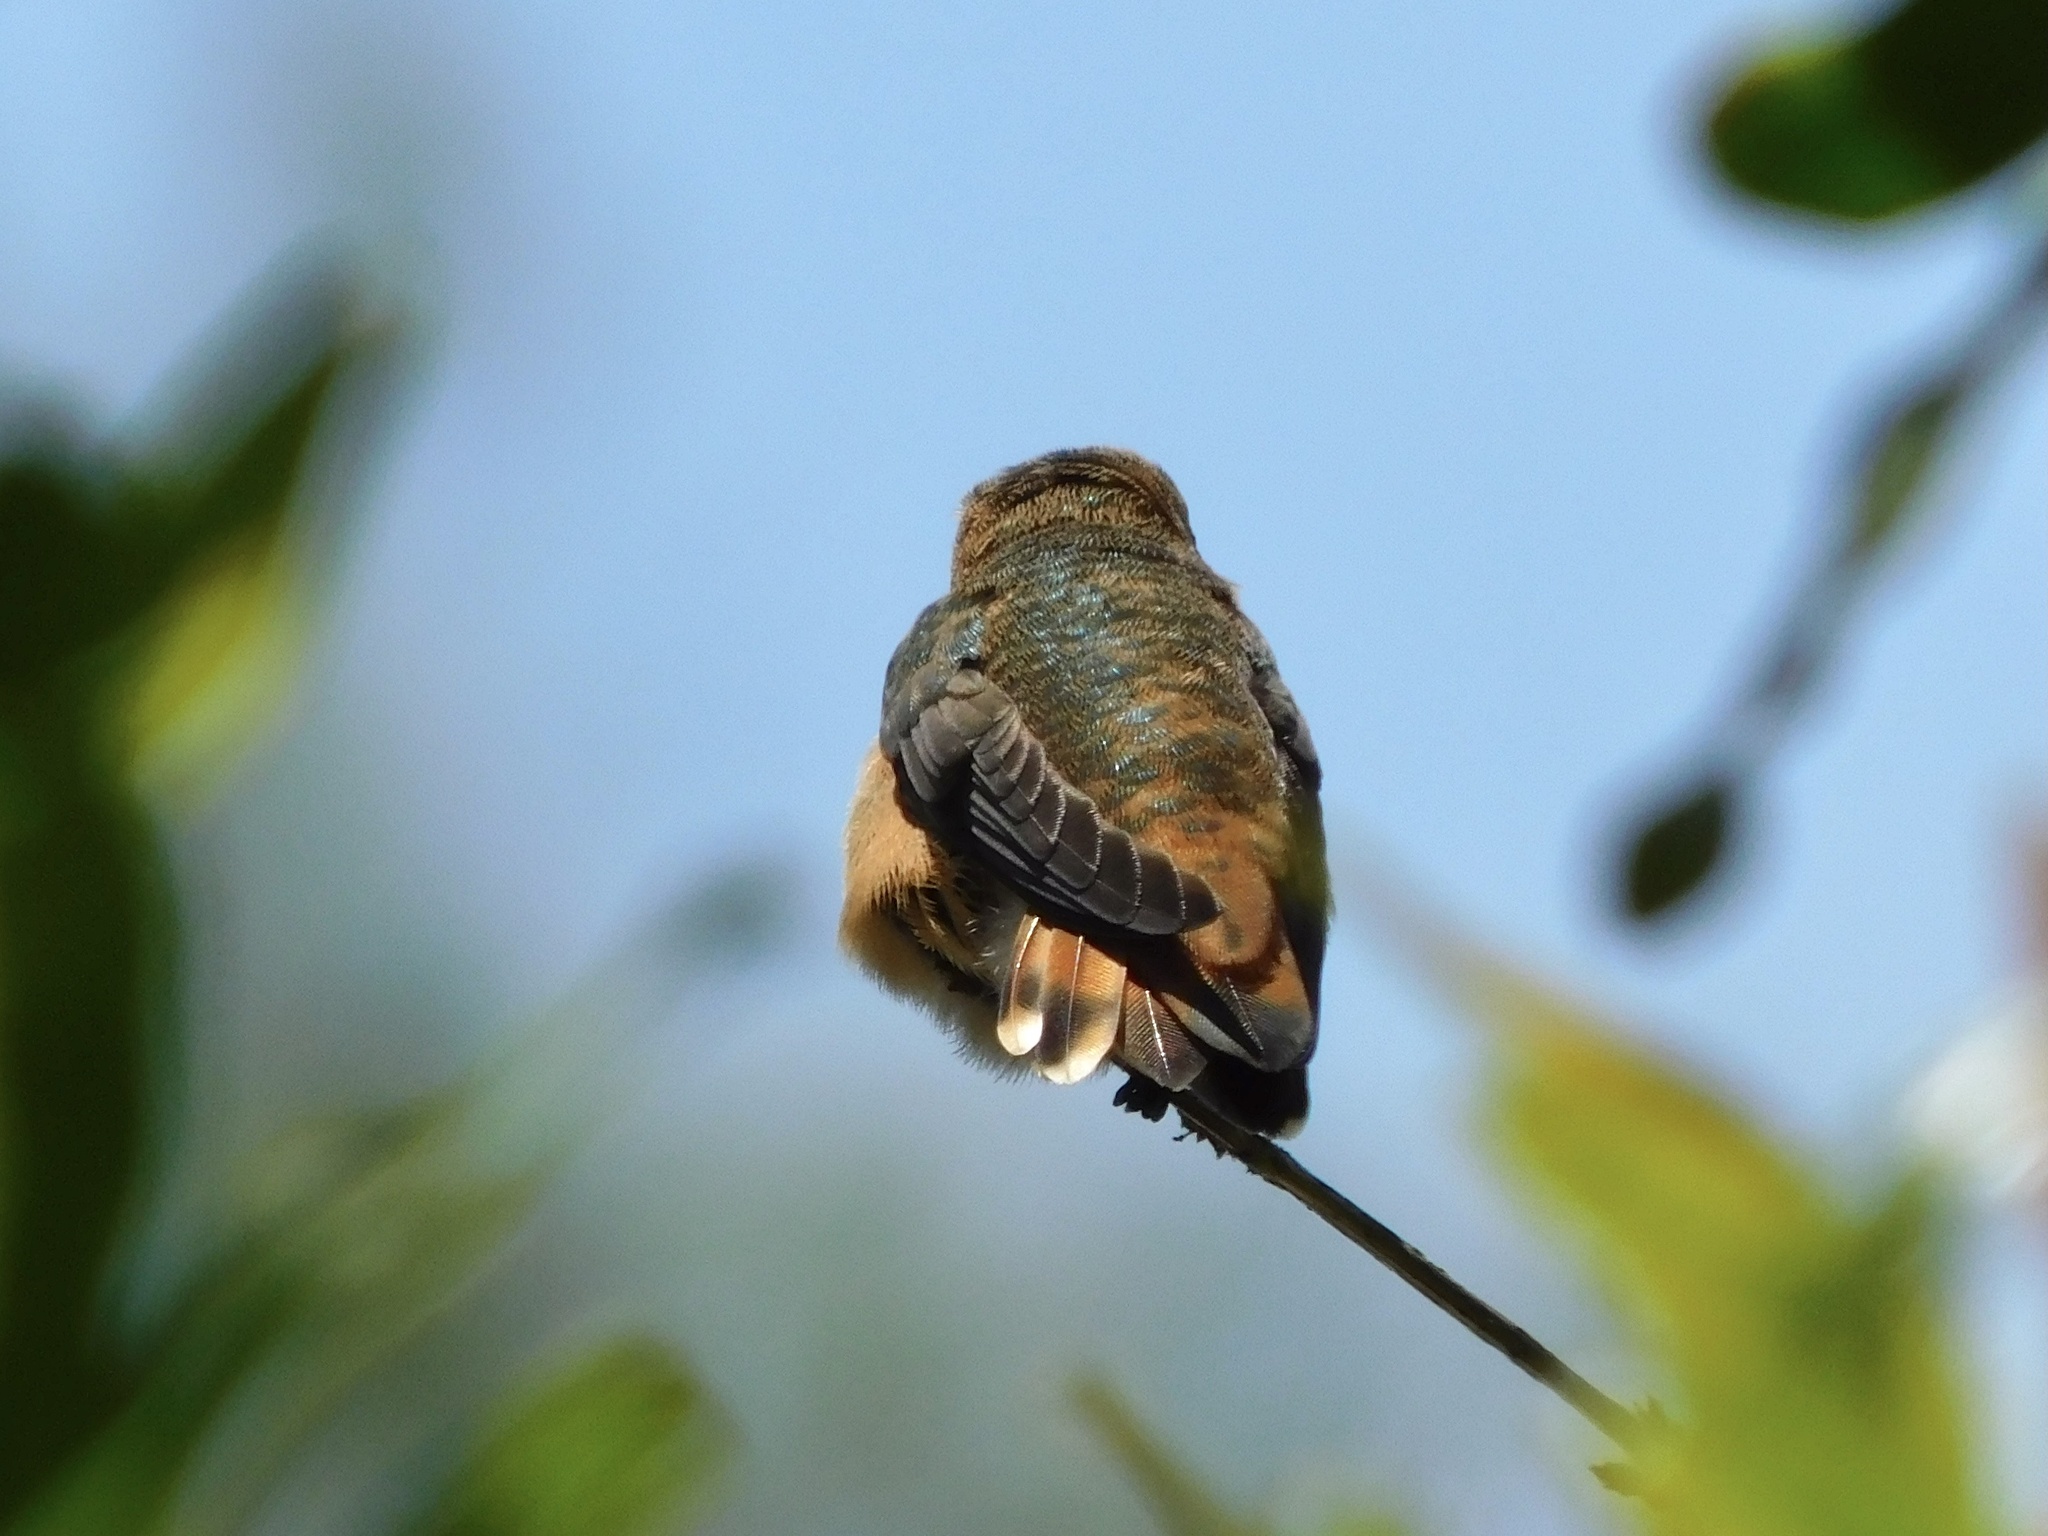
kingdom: Animalia
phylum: Chordata
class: Aves
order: Apodiformes
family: Trochilidae
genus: Selasphorus
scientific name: Selasphorus sasin
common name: Allen's hummingbird
